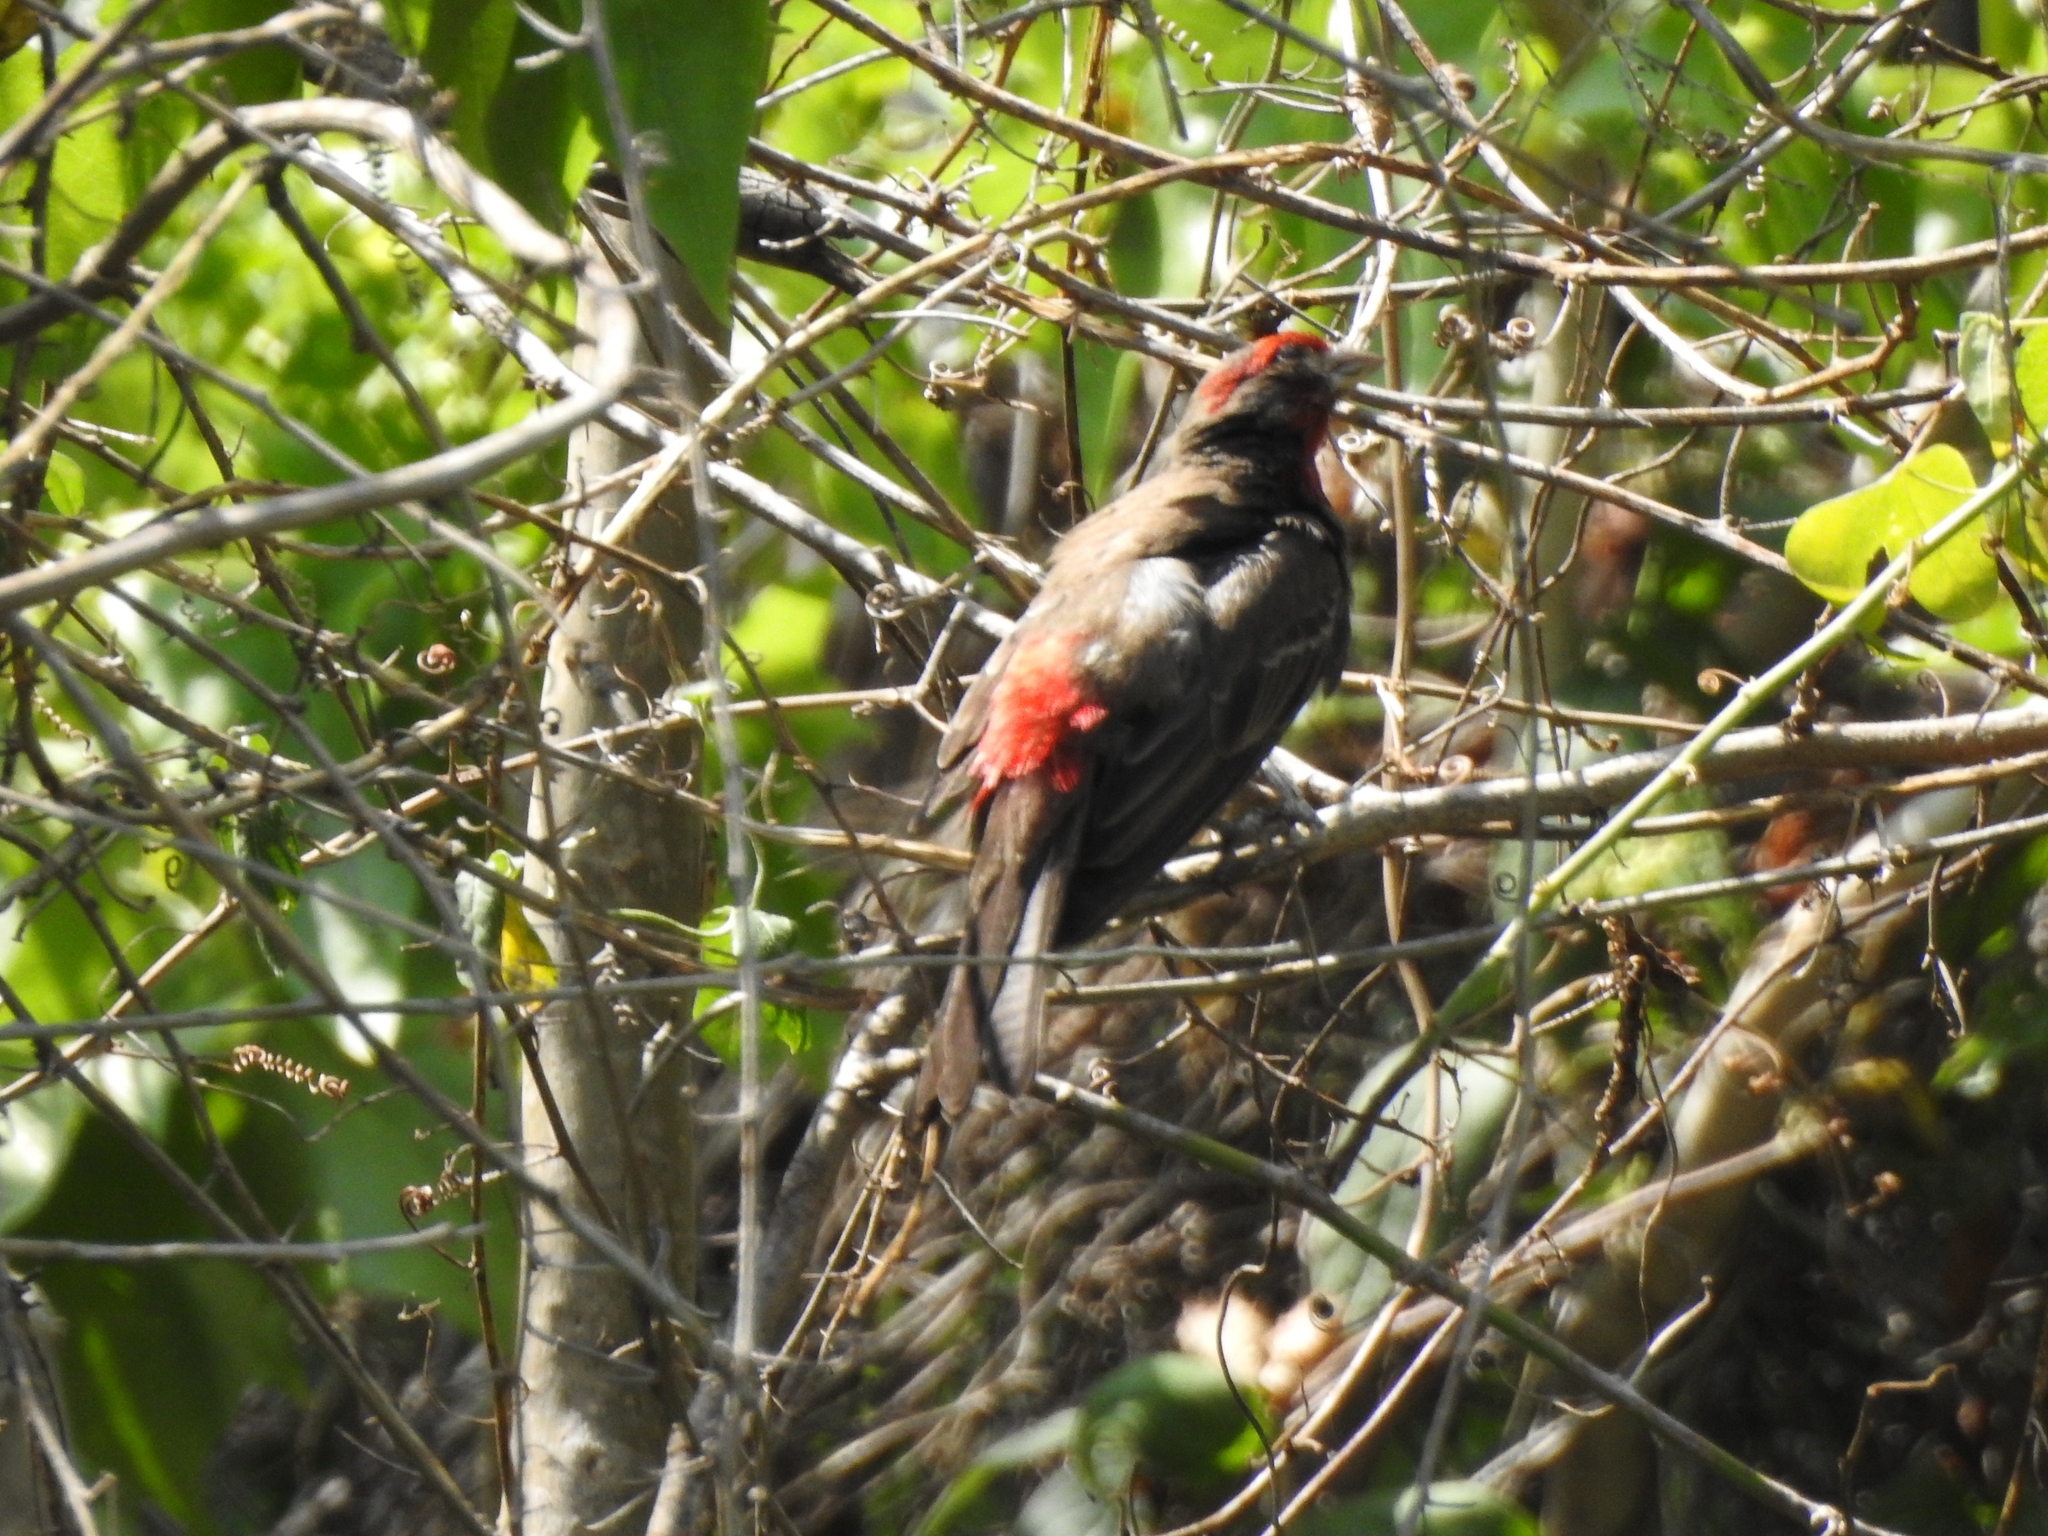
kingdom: Animalia
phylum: Chordata
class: Aves
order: Passeriformes
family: Fringillidae
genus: Haemorhous
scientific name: Haemorhous mexicanus
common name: House finch
